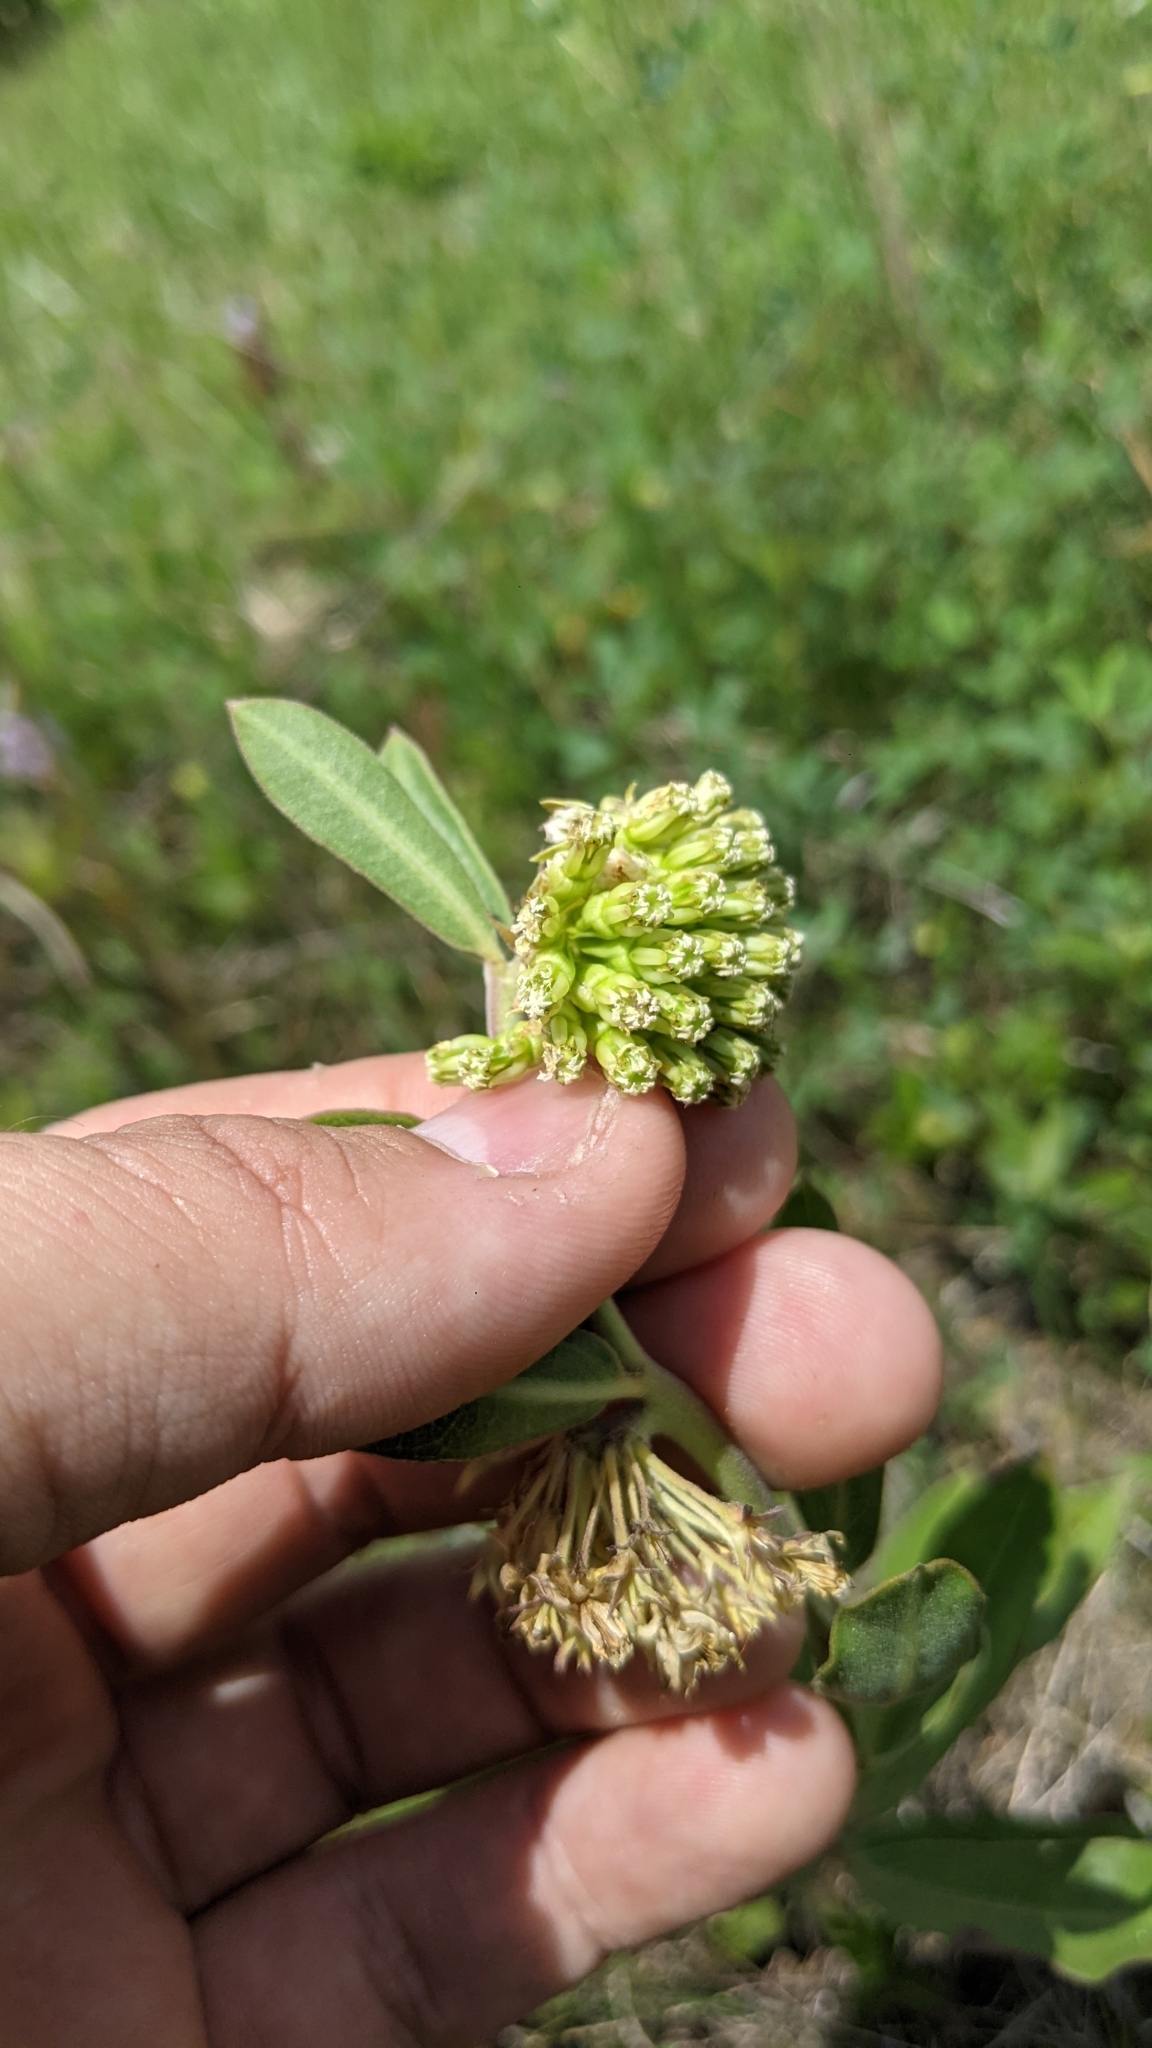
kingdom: Plantae
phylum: Tracheophyta
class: Magnoliopsida
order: Gentianales
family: Apocynaceae
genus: Asclepias
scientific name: Asclepias viridiflora
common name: Green comet milkweed
